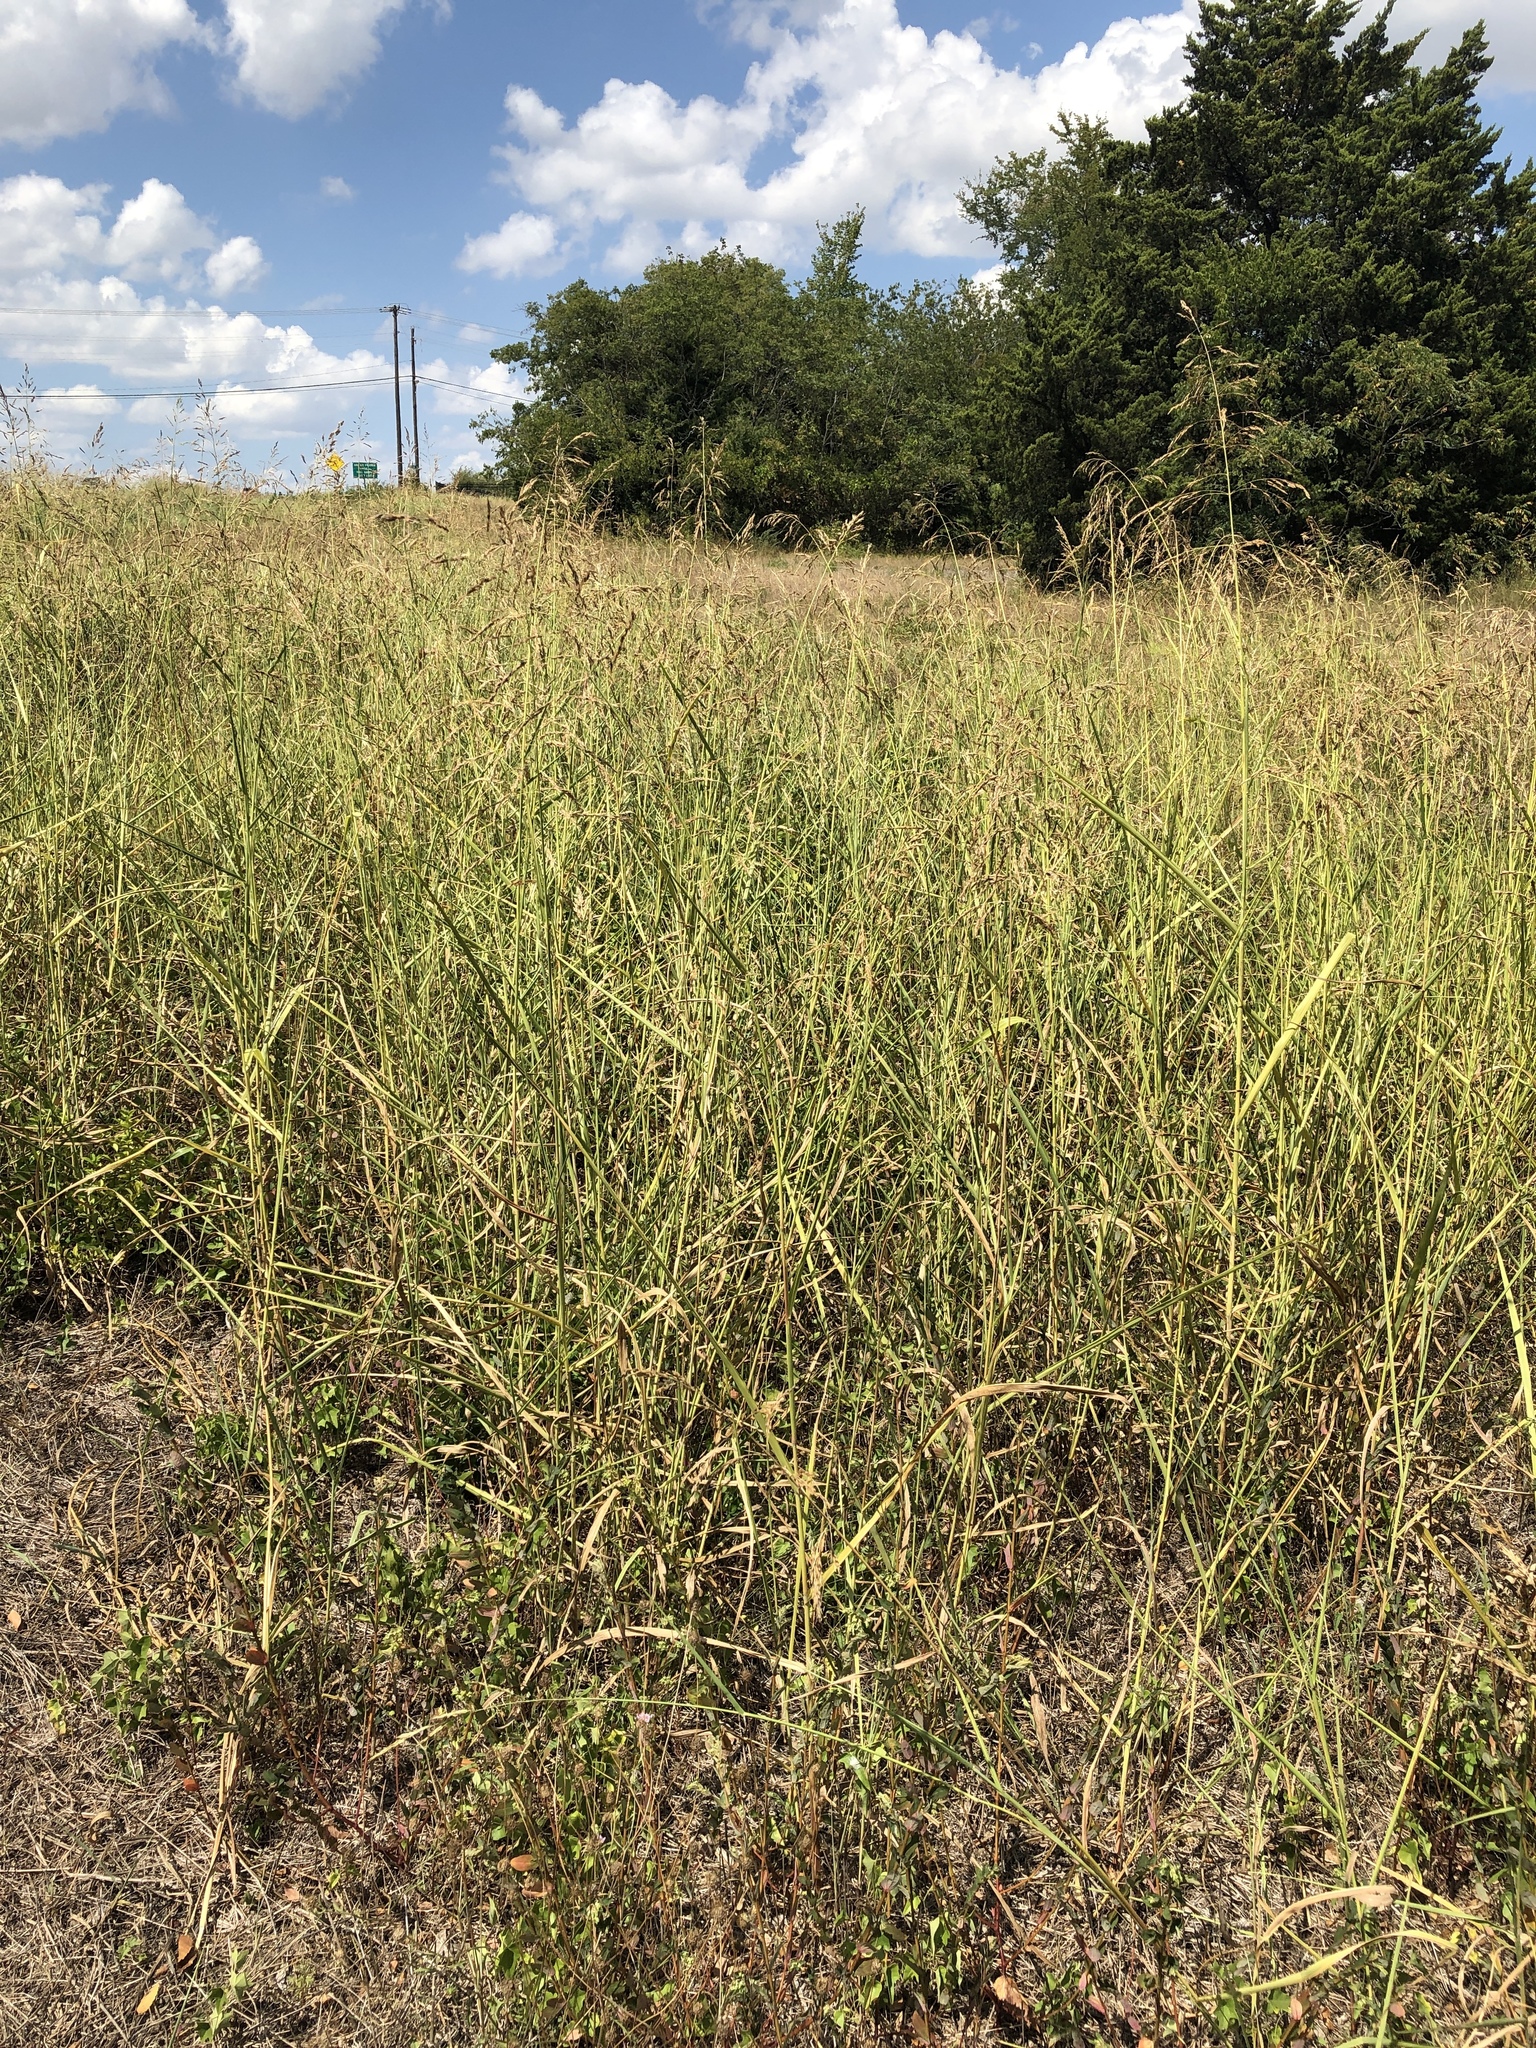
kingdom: Plantae
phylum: Tracheophyta
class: Liliopsida
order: Poales
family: Poaceae
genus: Sorghum
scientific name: Sorghum halepense
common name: Johnson-grass
